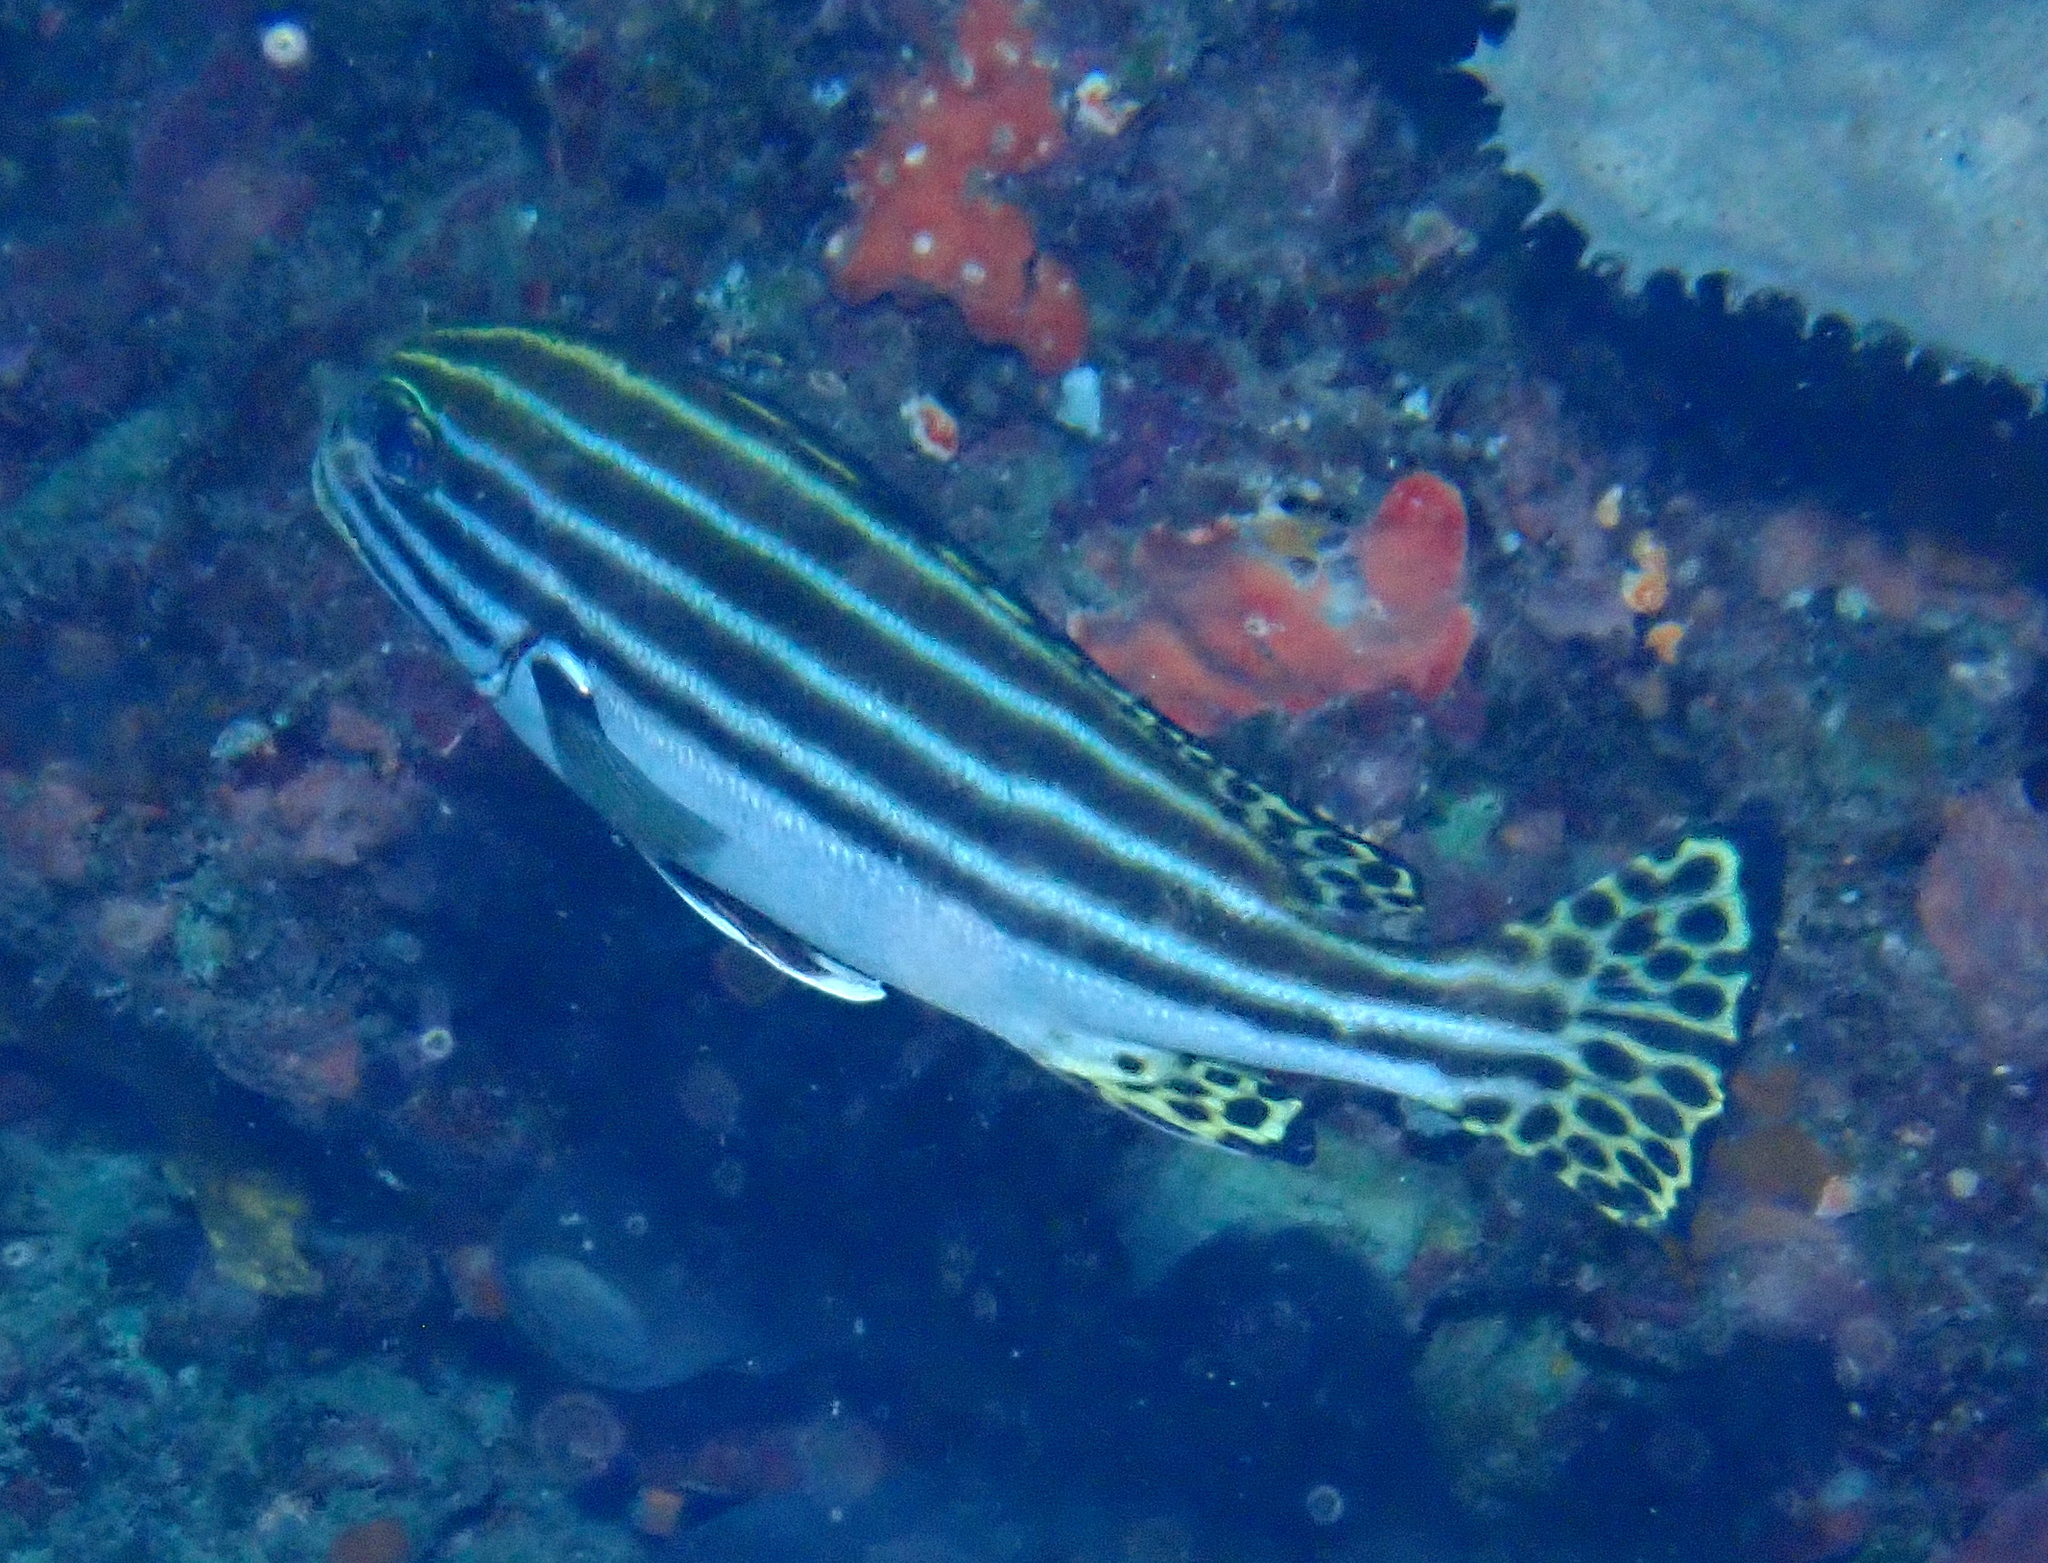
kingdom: Animalia
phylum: Chordata
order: Perciformes
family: Haemulidae
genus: Plectorhinchus
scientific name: Plectorhinchus lessonii
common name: Lesson's thicklip
